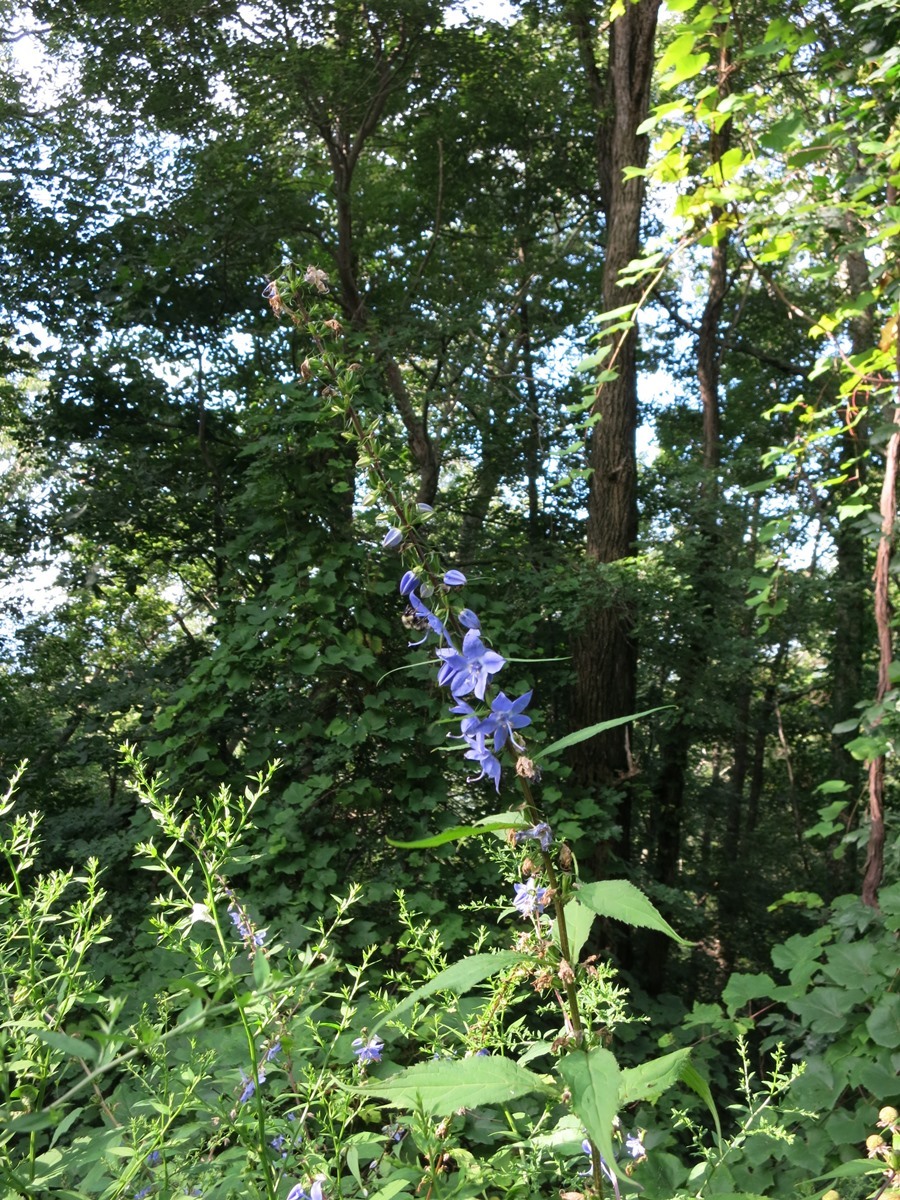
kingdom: Plantae
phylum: Tracheophyta
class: Magnoliopsida
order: Asterales
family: Campanulaceae
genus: Campanulastrum
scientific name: Campanulastrum americanum
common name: American bellflower
